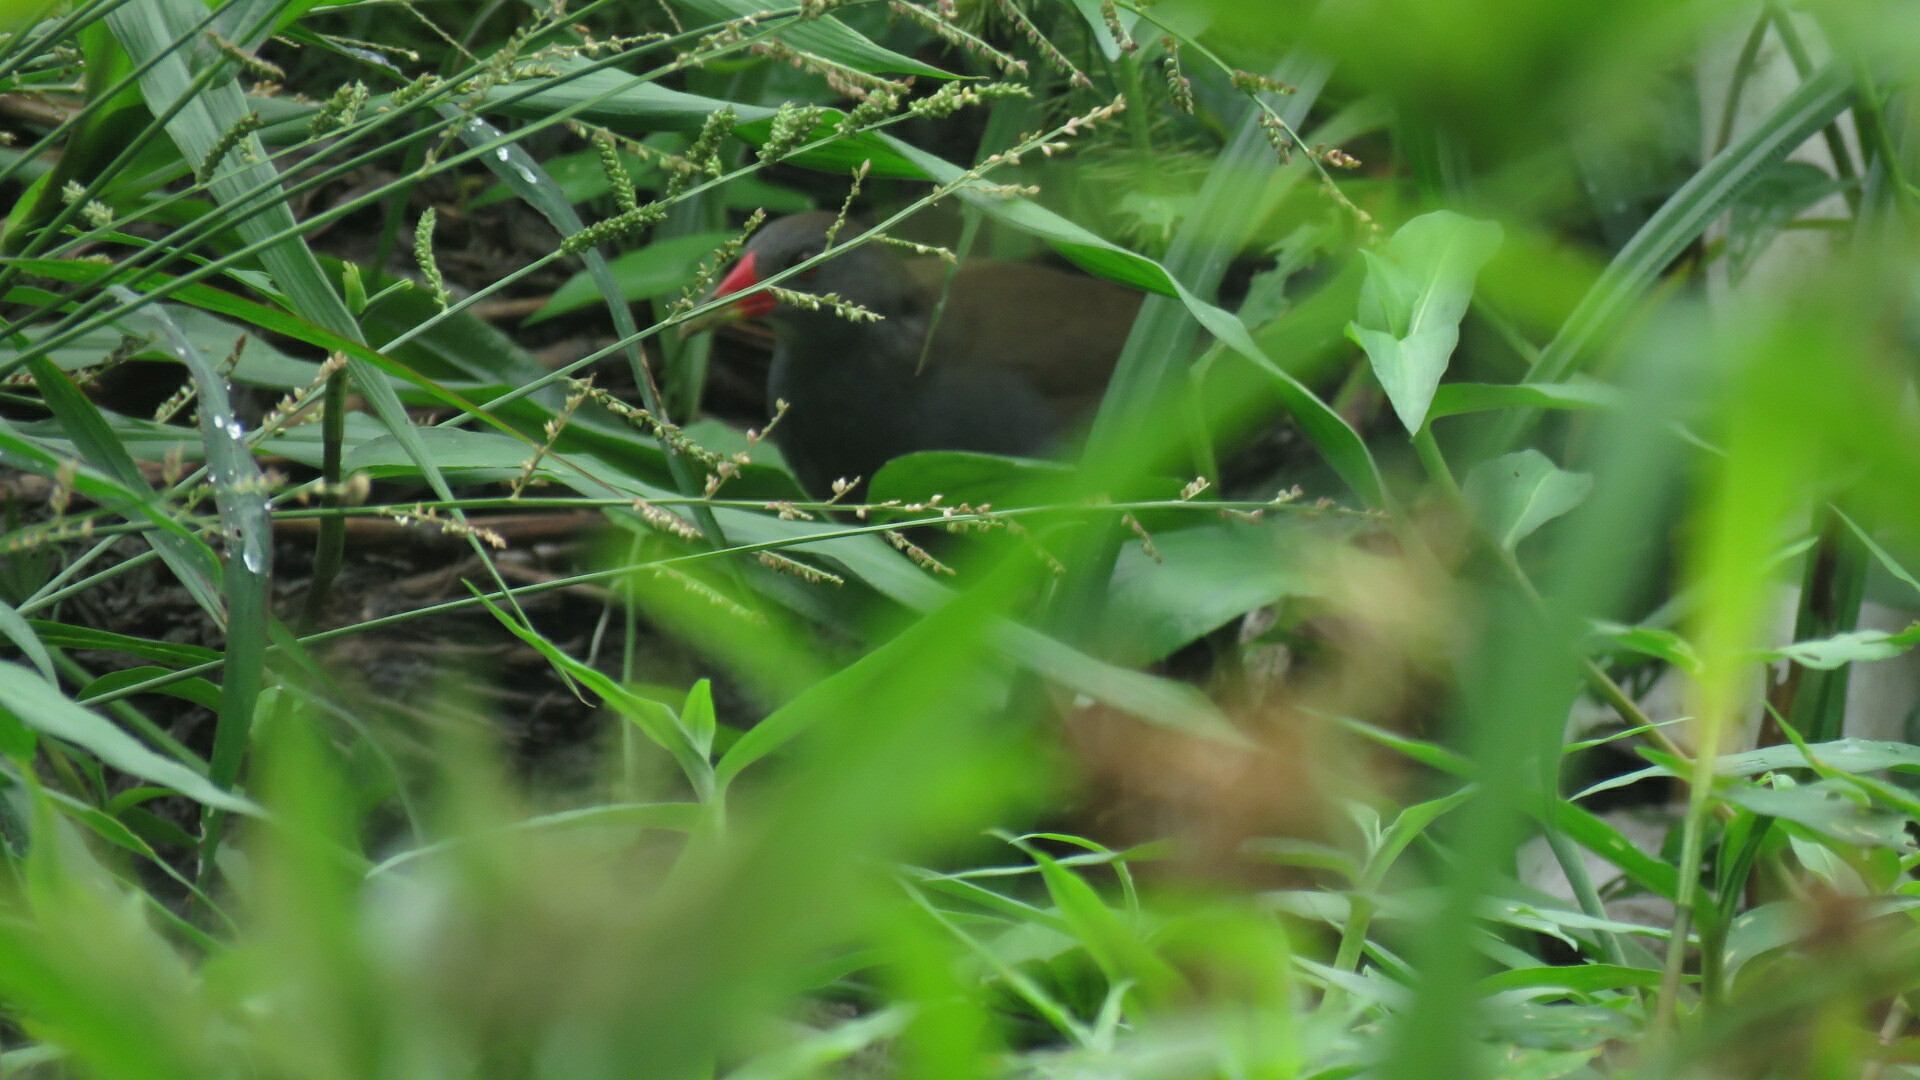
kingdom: Animalia
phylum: Chordata
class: Aves
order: Gruiformes
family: Rallidae
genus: Neocrex
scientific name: Neocrex erythrops
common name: Paint-billed crake
